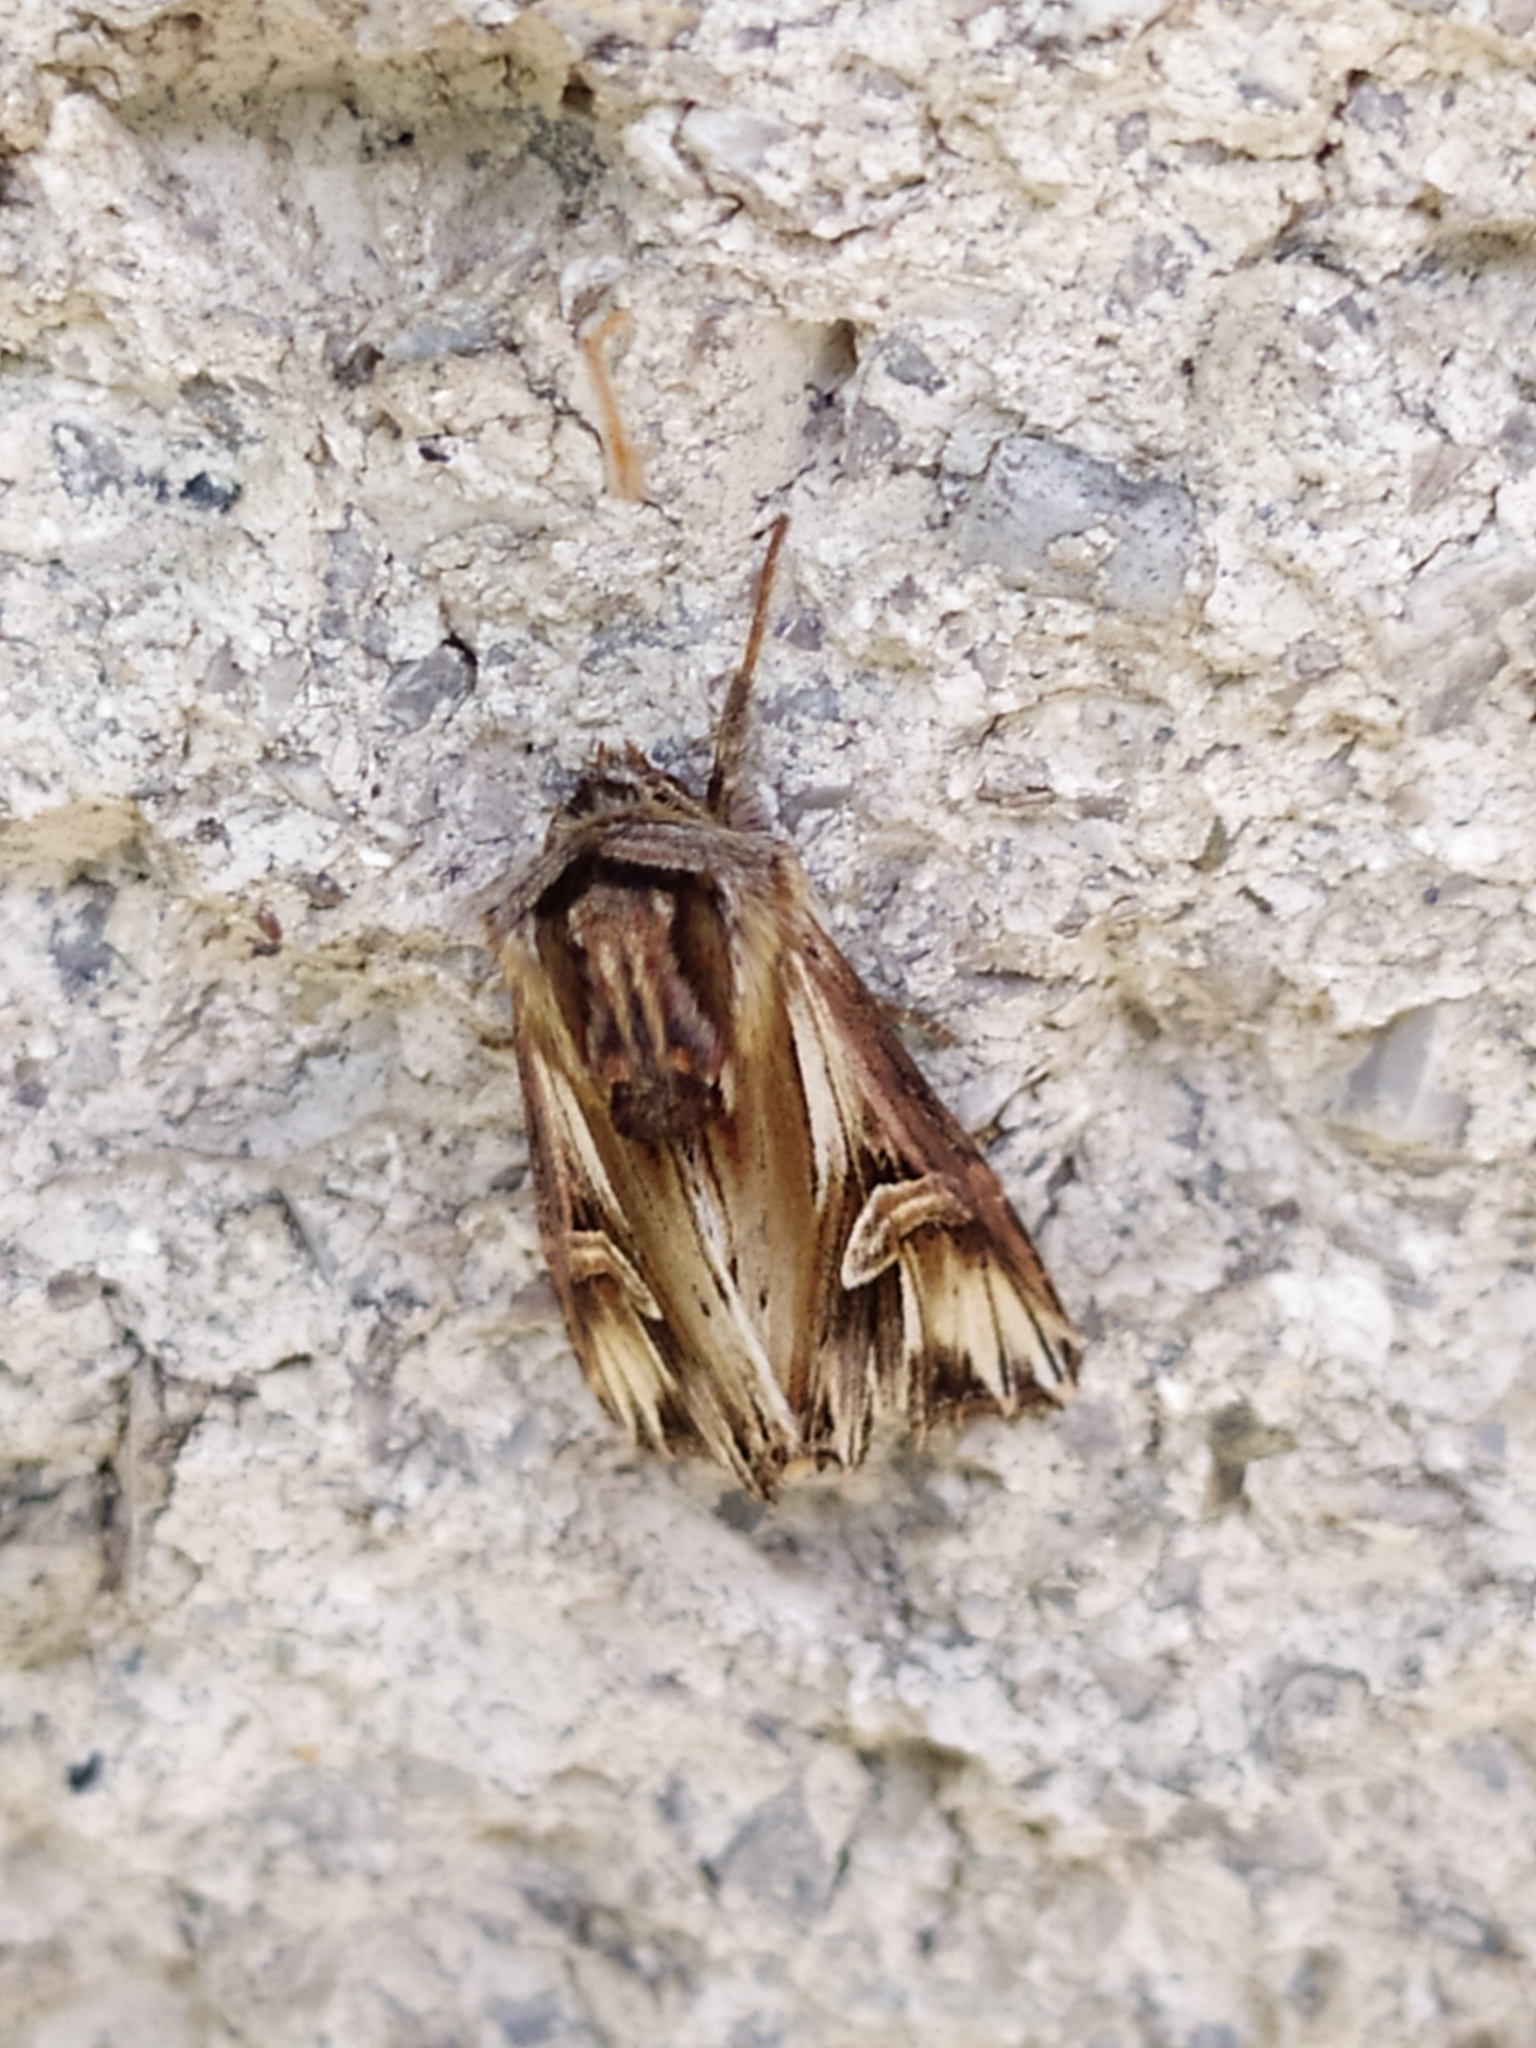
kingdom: Animalia
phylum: Arthropoda
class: Insecta
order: Lepidoptera
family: Noctuidae
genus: Actinotia
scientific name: Actinotia polyodon
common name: Purple cloud
